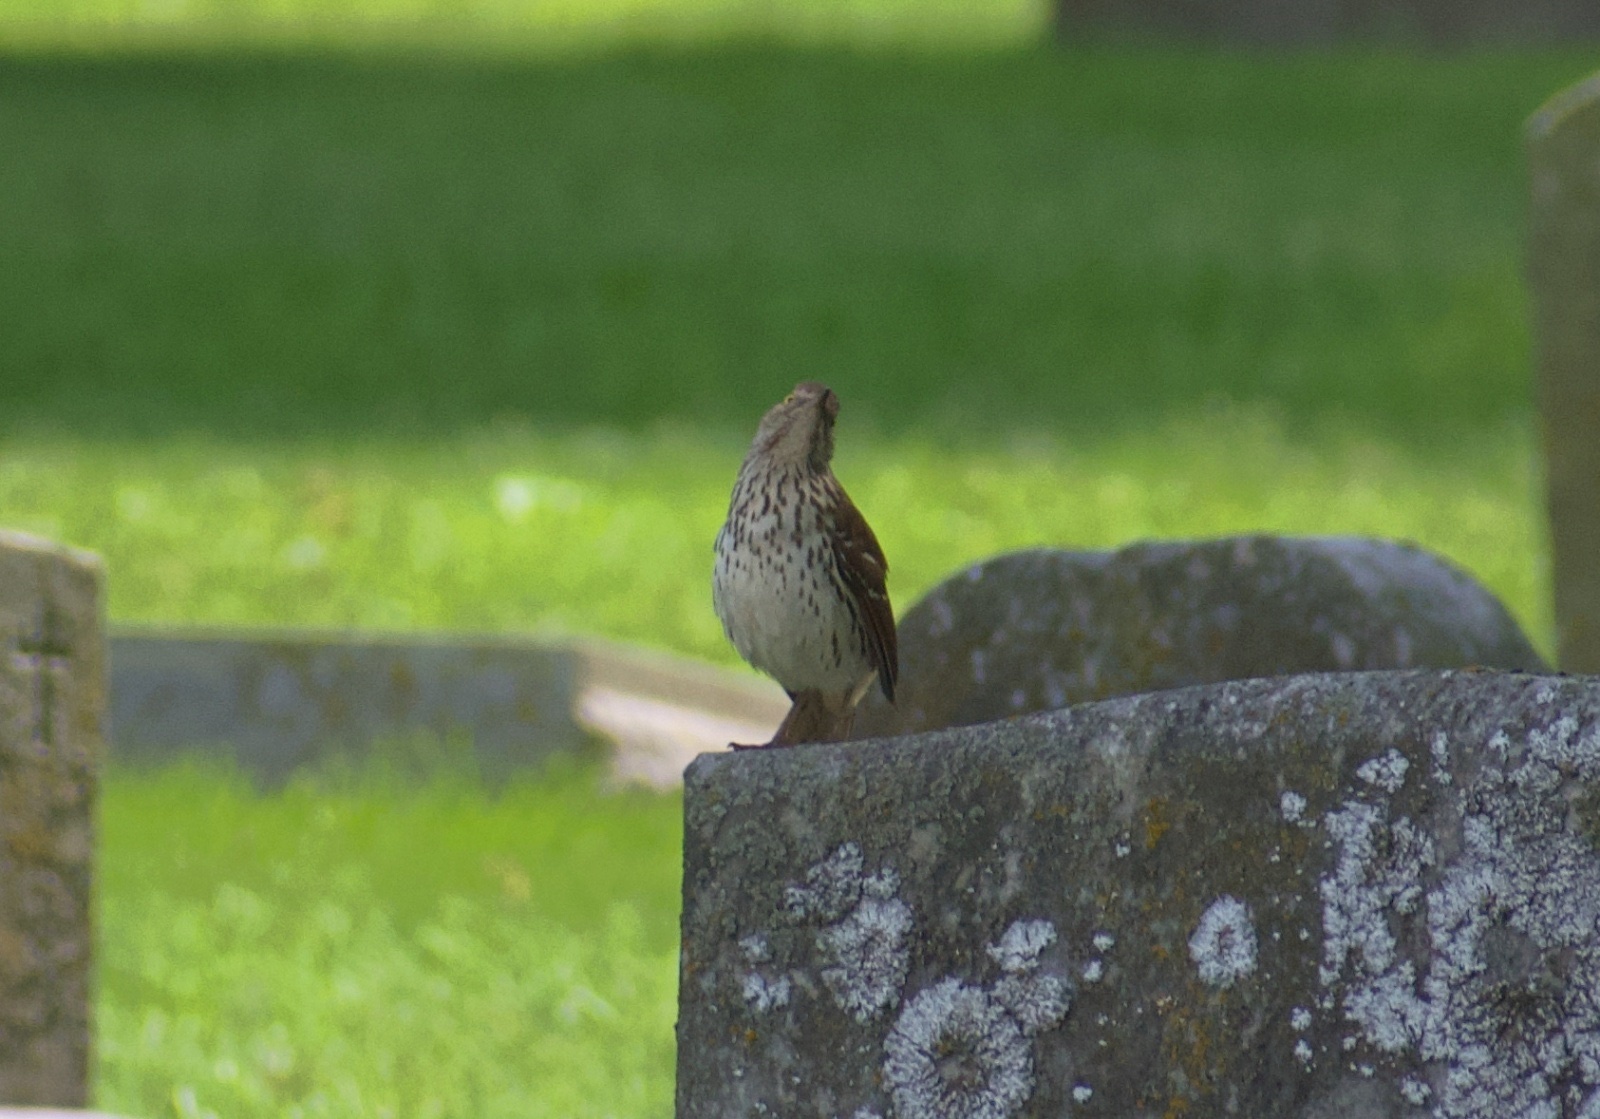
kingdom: Animalia
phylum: Chordata
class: Aves
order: Passeriformes
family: Mimidae
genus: Toxostoma
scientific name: Toxostoma rufum
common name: Brown thrasher
